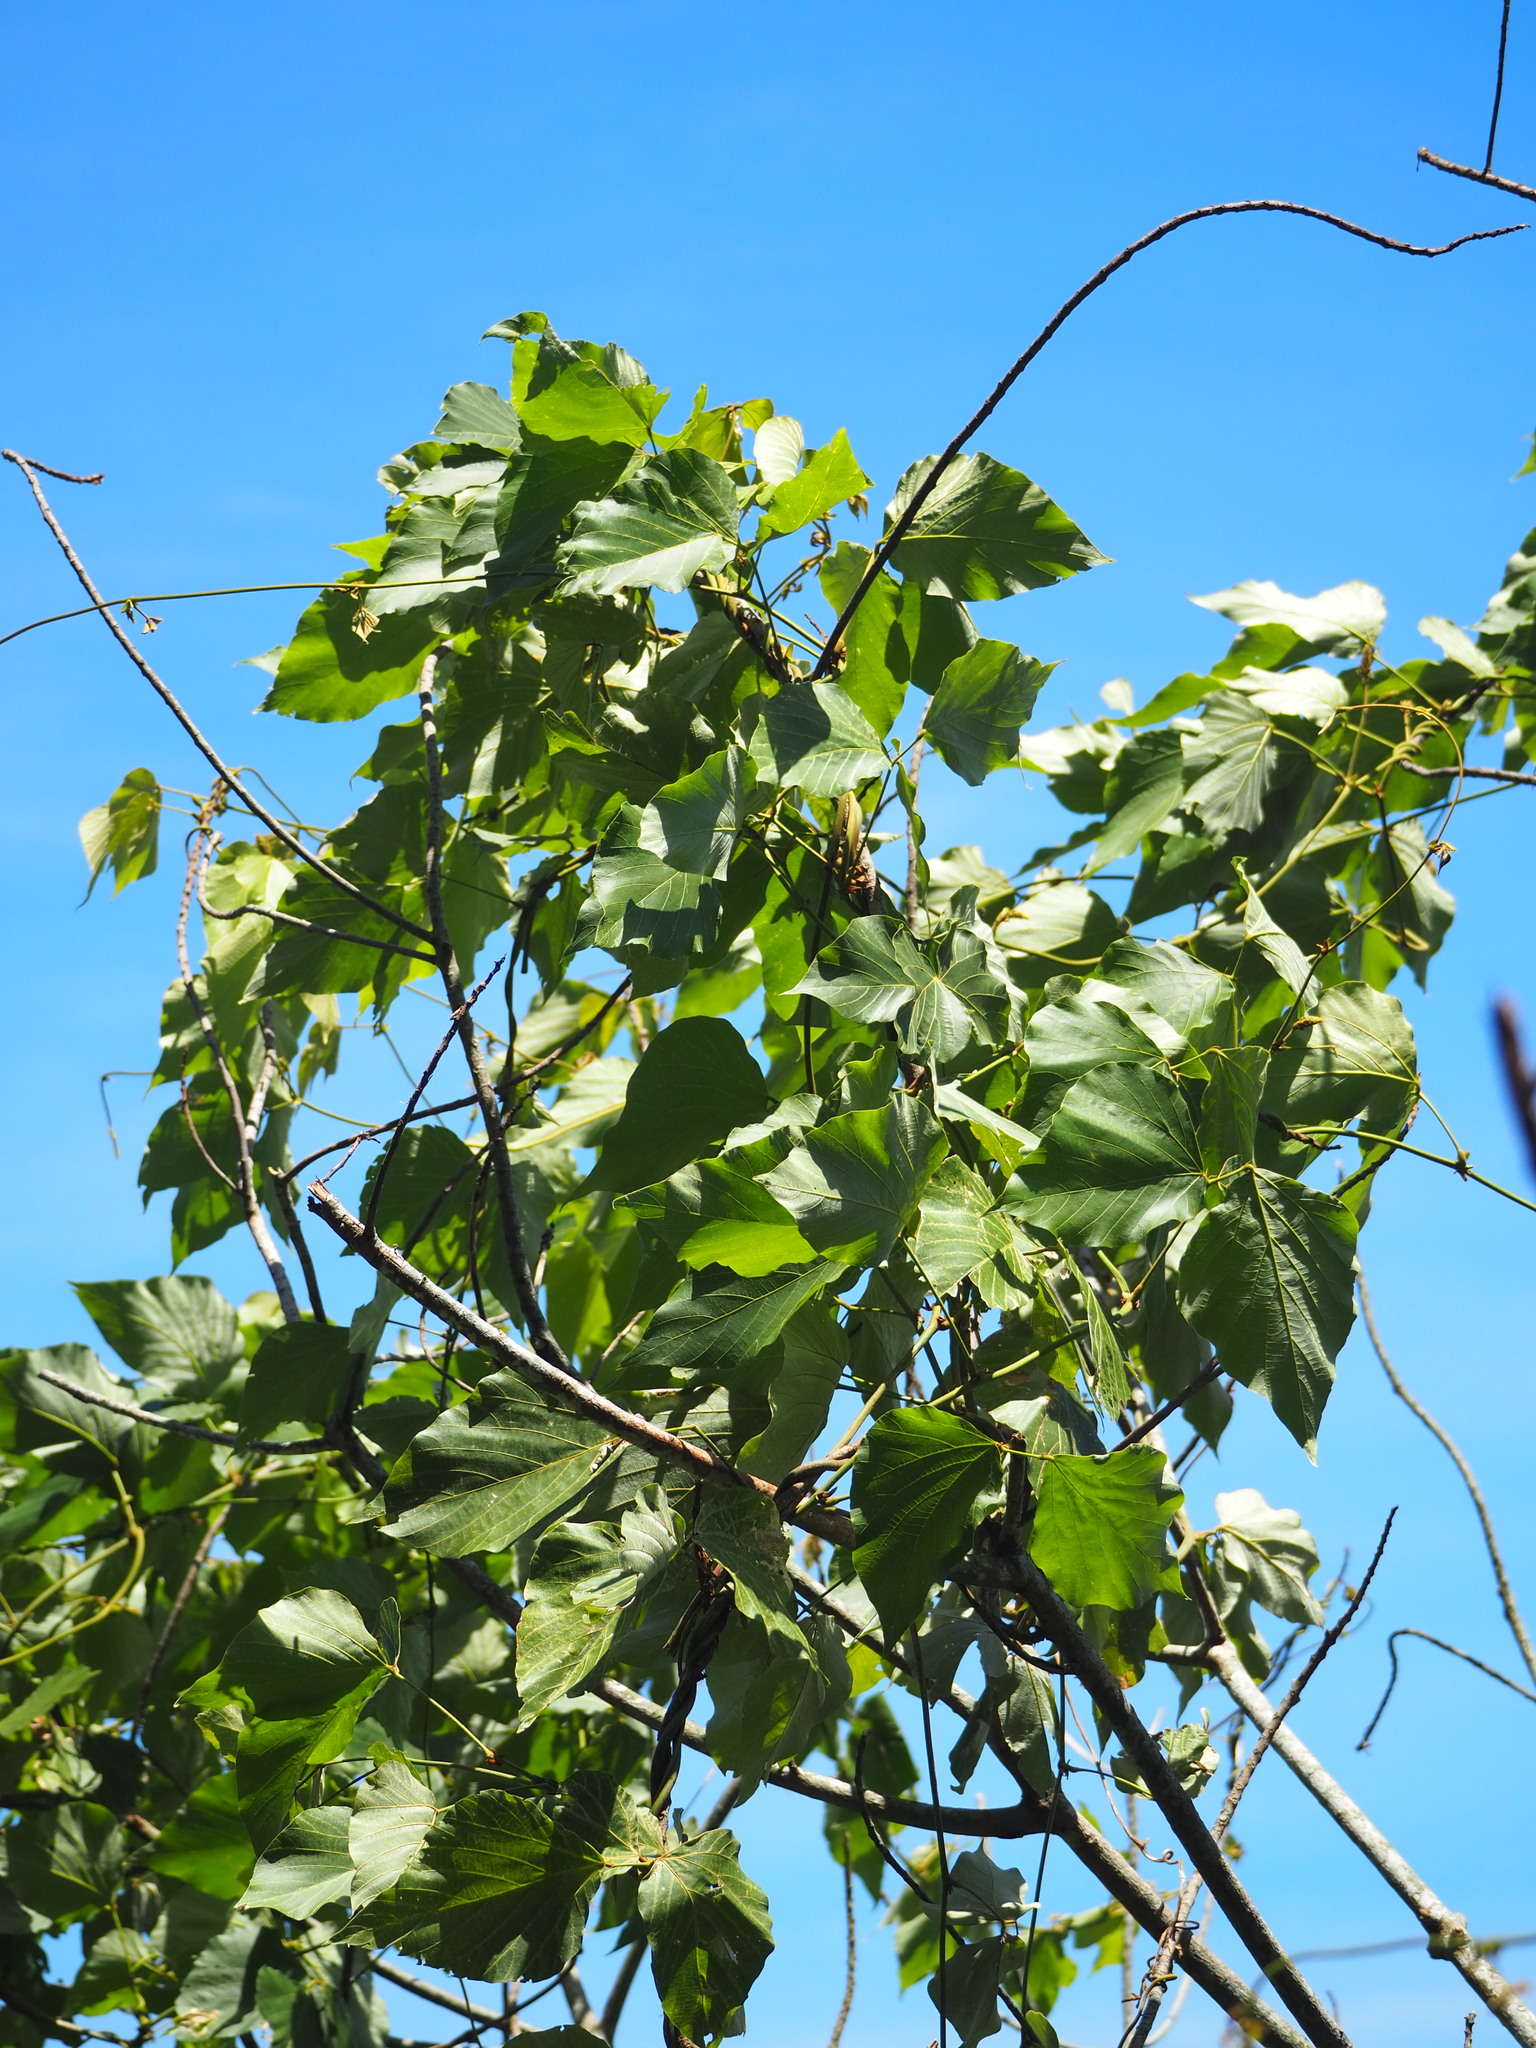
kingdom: Plantae
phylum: Tracheophyta
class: Magnoliopsida
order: Fabales
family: Fabaceae
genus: Pueraria
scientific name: Pueraria montana
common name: Kudzu
